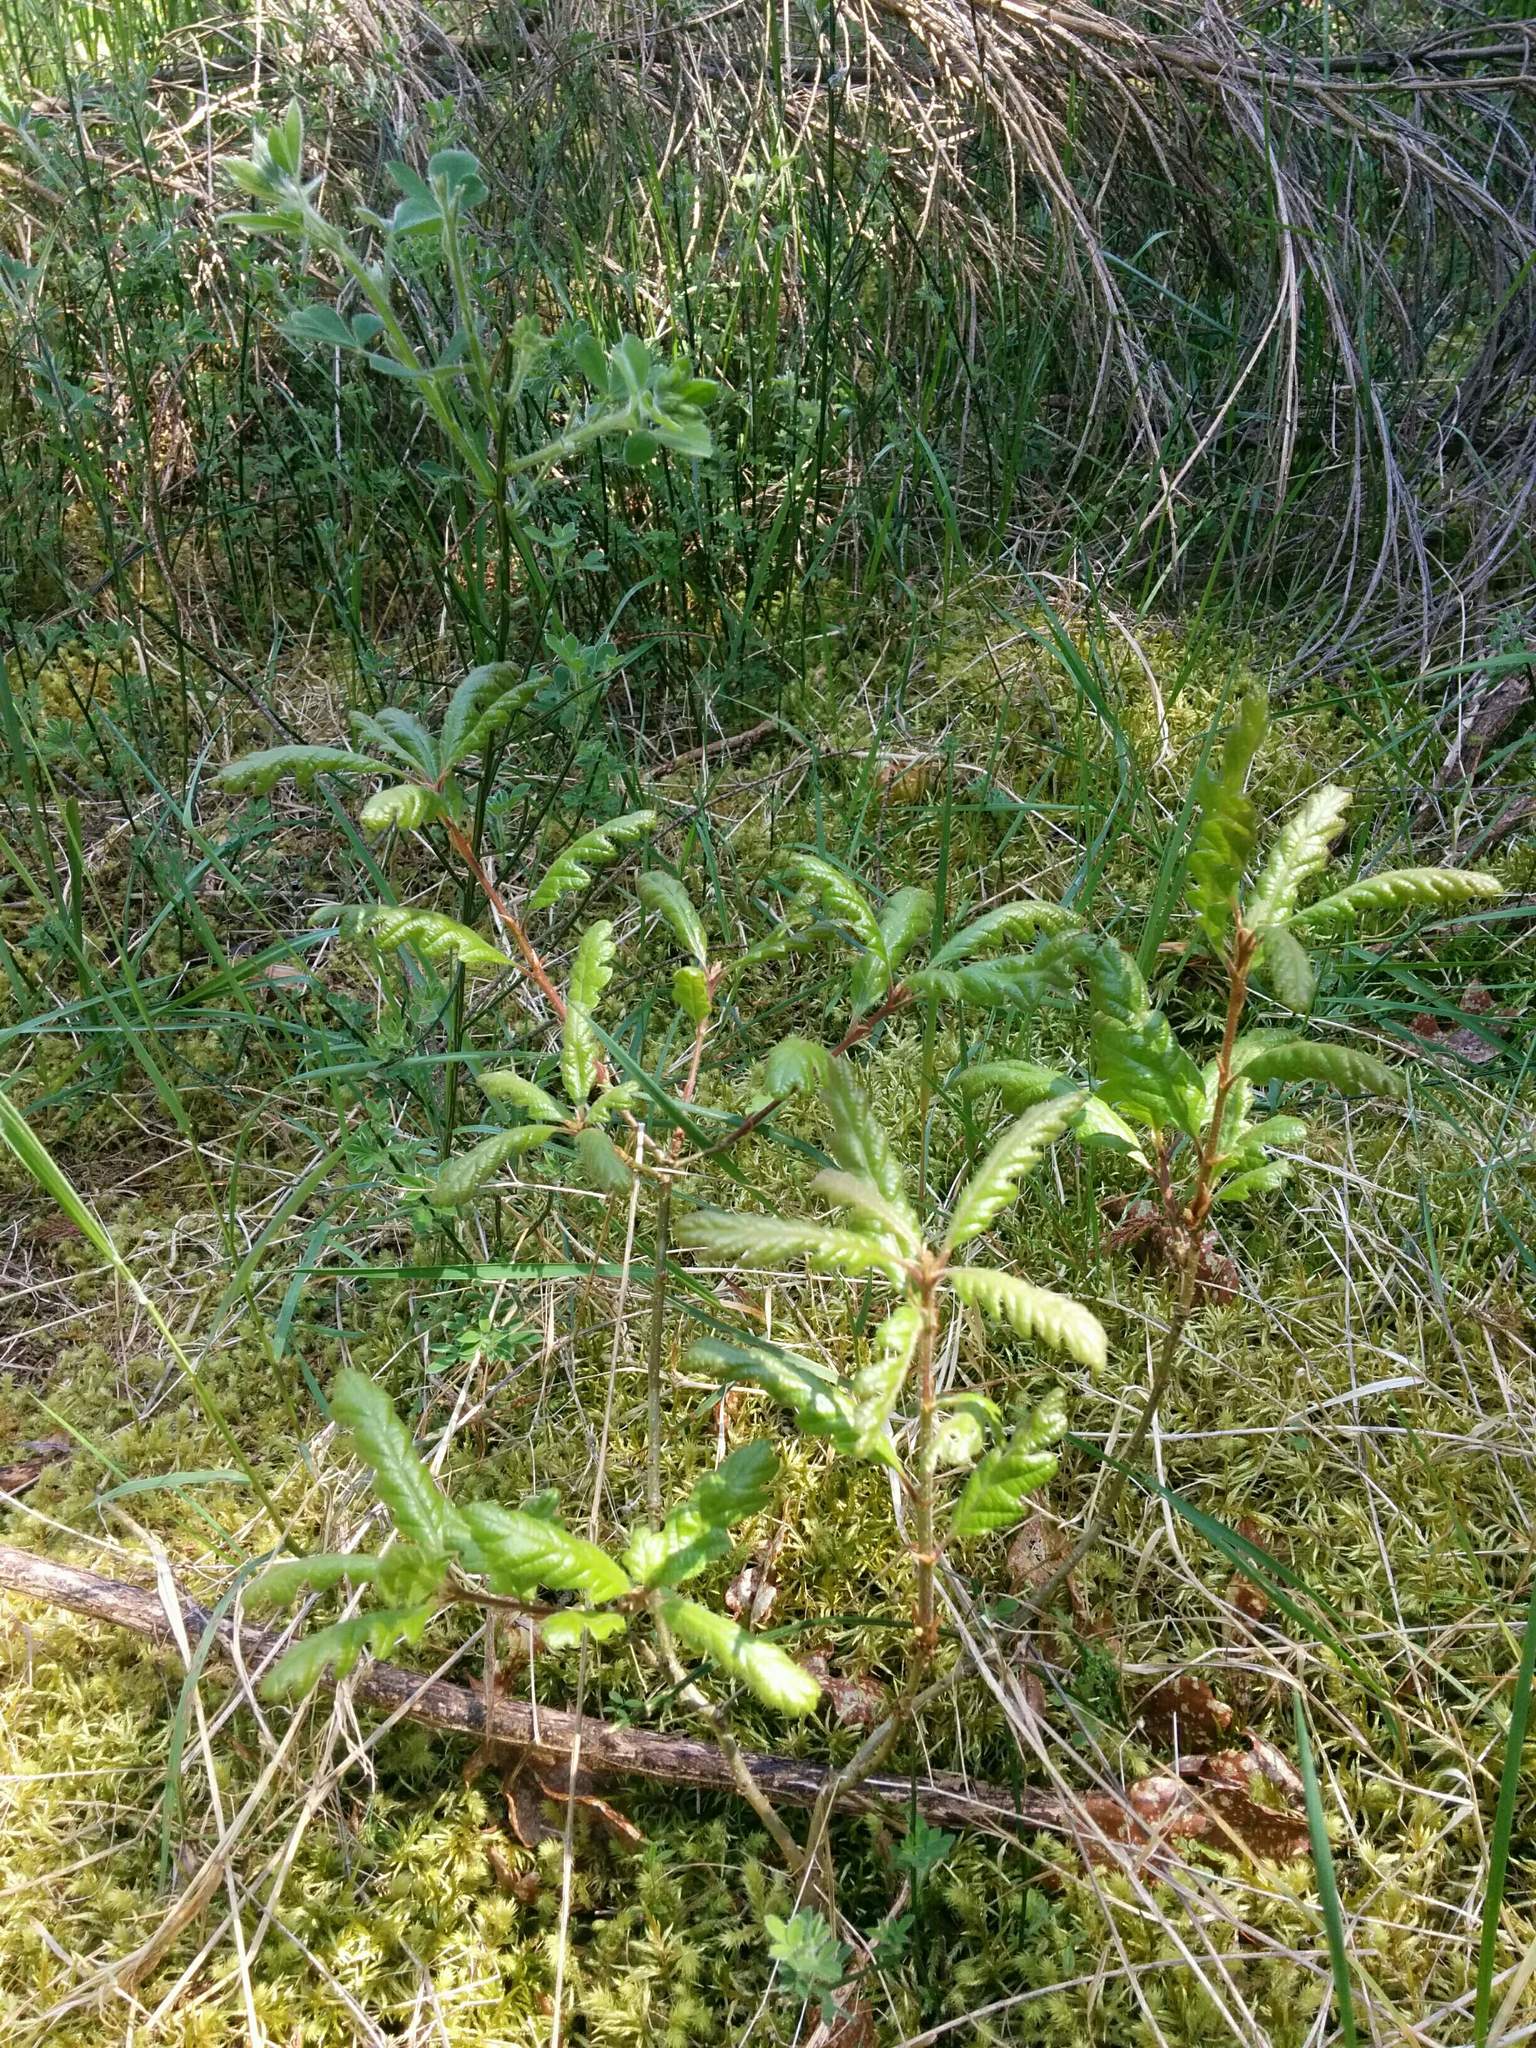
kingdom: Plantae
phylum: Tracheophyta
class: Magnoliopsida
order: Fagales
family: Fagaceae
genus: Quercus
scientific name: Quercus garryana
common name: Garry oak
